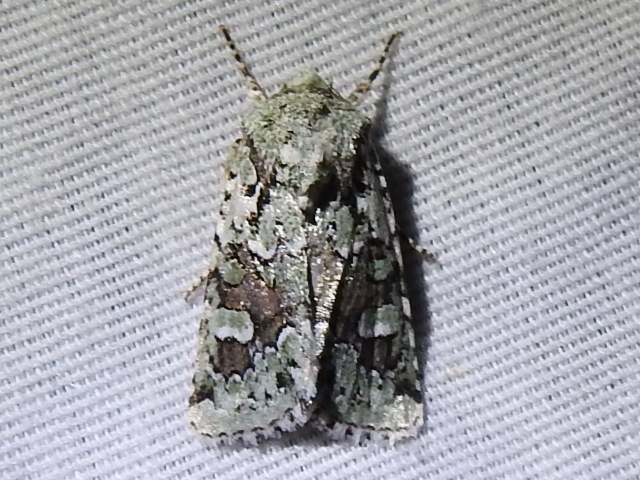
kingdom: Animalia
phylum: Arthropoda
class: Insecta
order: Lepidoptera
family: Noctuidae
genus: Lacinipolia
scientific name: Lacinipolia laudabilis
